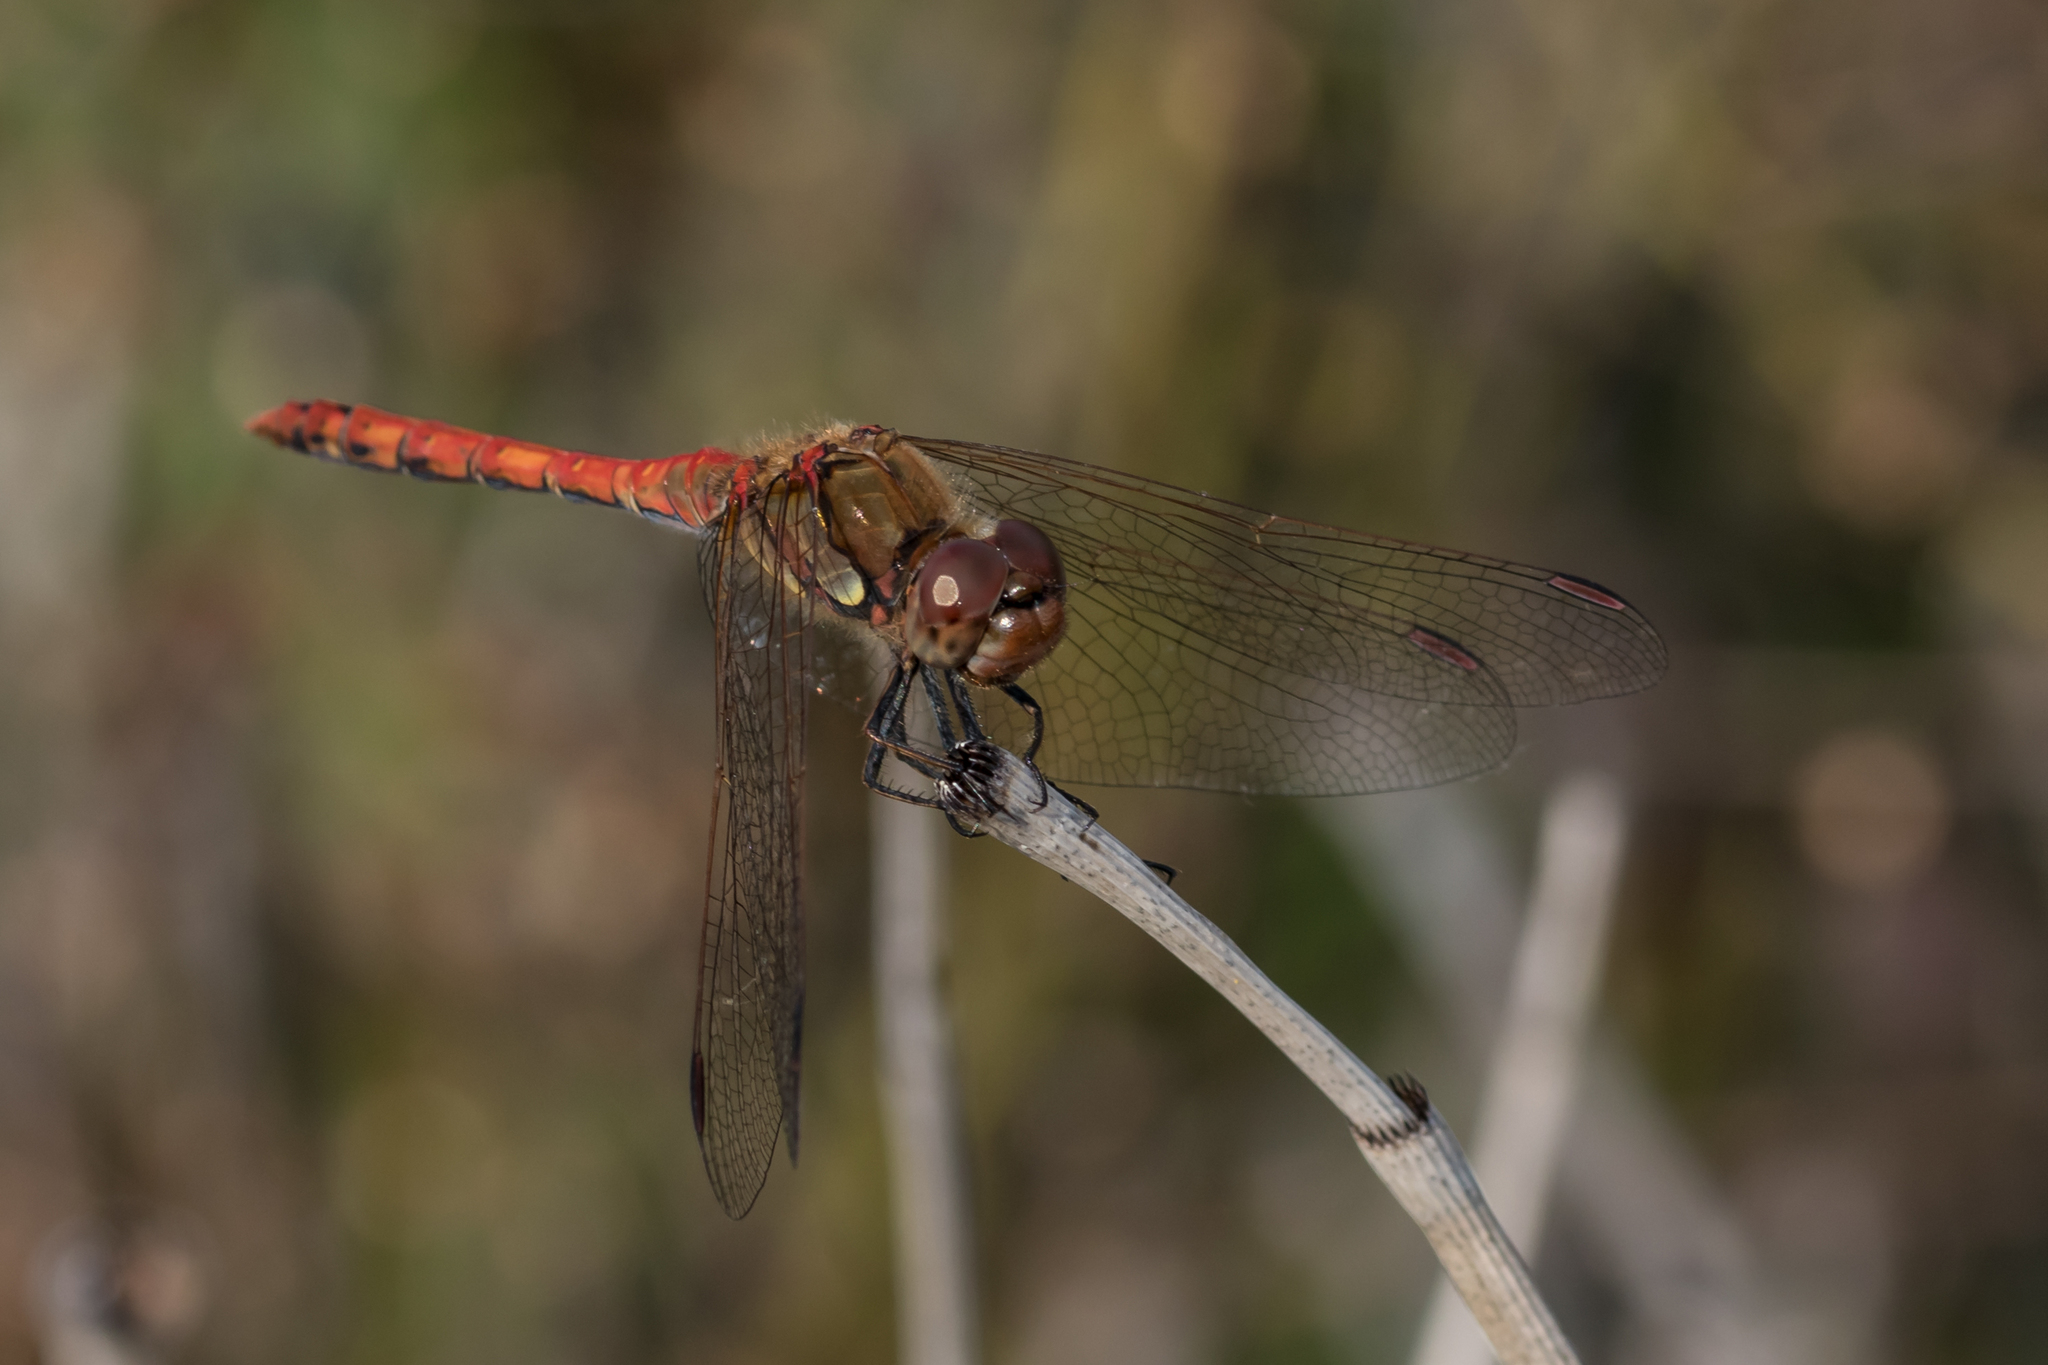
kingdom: Animalia
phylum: Arthropoda
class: Insecta
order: Odonata
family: Libellulidae
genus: Sympetrum
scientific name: Sympetrum striolatum
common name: Common darter
